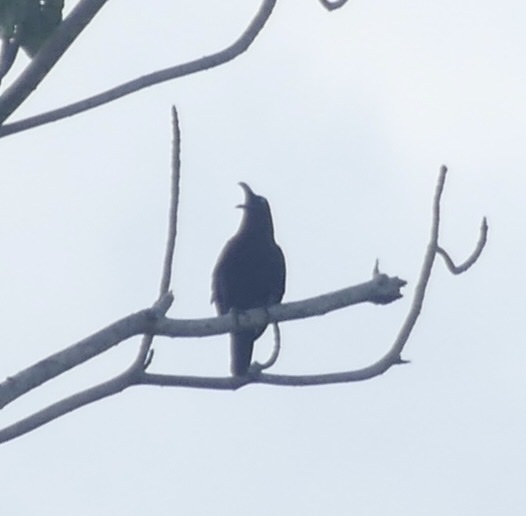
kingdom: Animalia
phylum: Chordata
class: Aves
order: Passeriformes
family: Corvidae
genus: Corvus
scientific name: Corvus fuscicapillus
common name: Brown-headed crow
